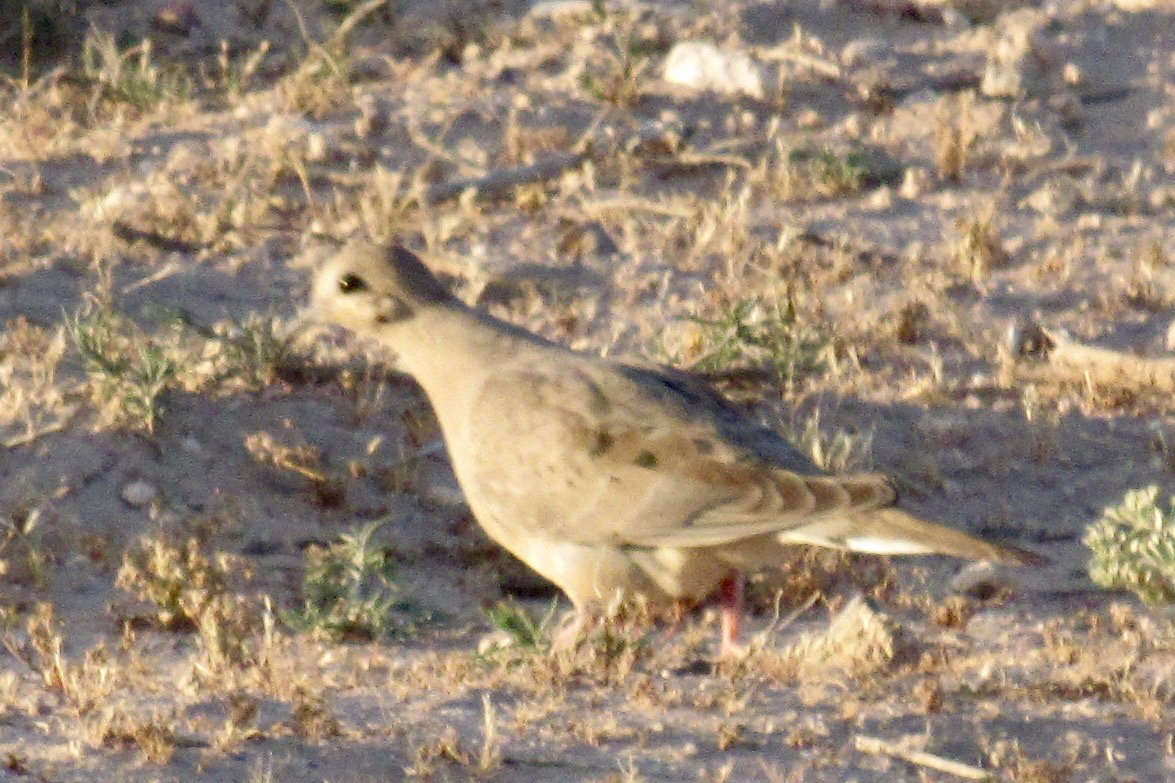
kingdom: Animalia
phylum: Chordata
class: Aves
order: Columbiformes
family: Columbidae
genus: Zenaida
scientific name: Zenaida macroura
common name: Mourning dove
